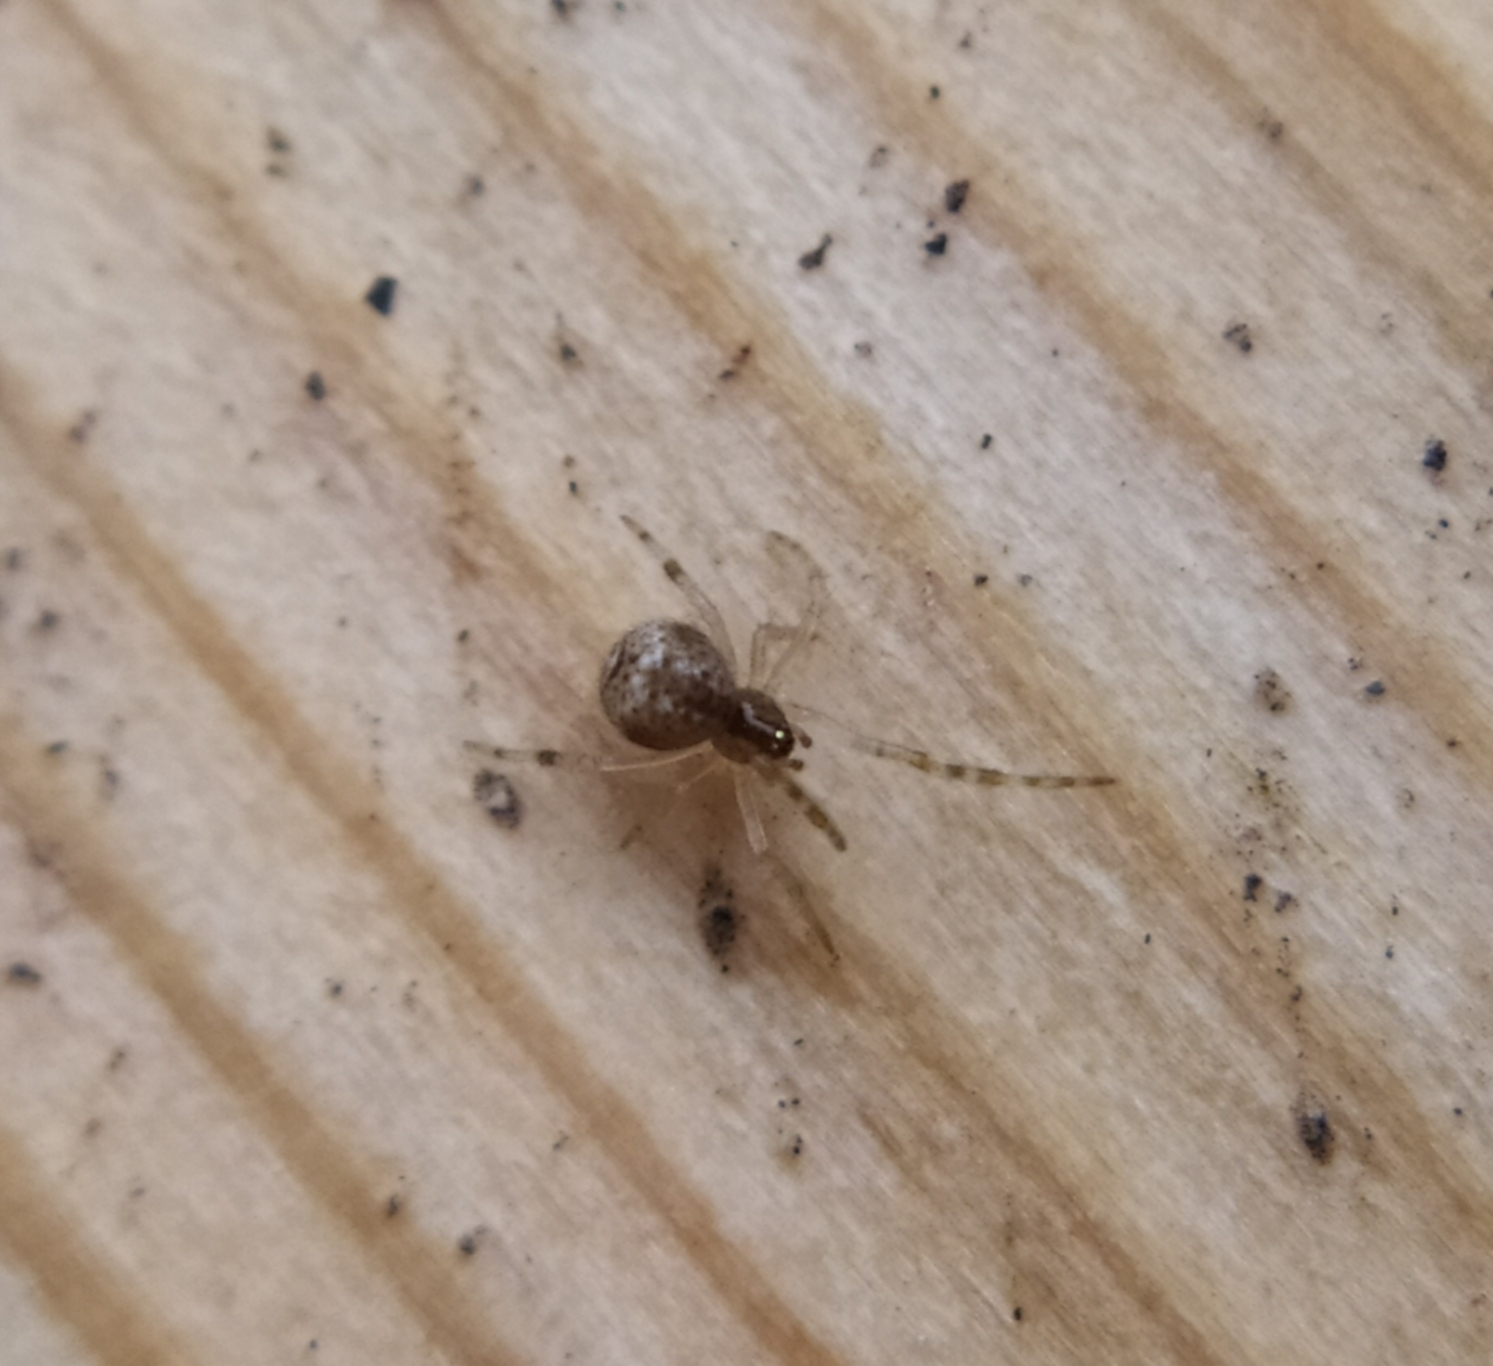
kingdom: Animalia
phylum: Arthropoda
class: Arachnida
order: Araneae
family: Theridiidae
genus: Parasteatoda
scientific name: Parasteatoda tepidariorum
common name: Common house spider
